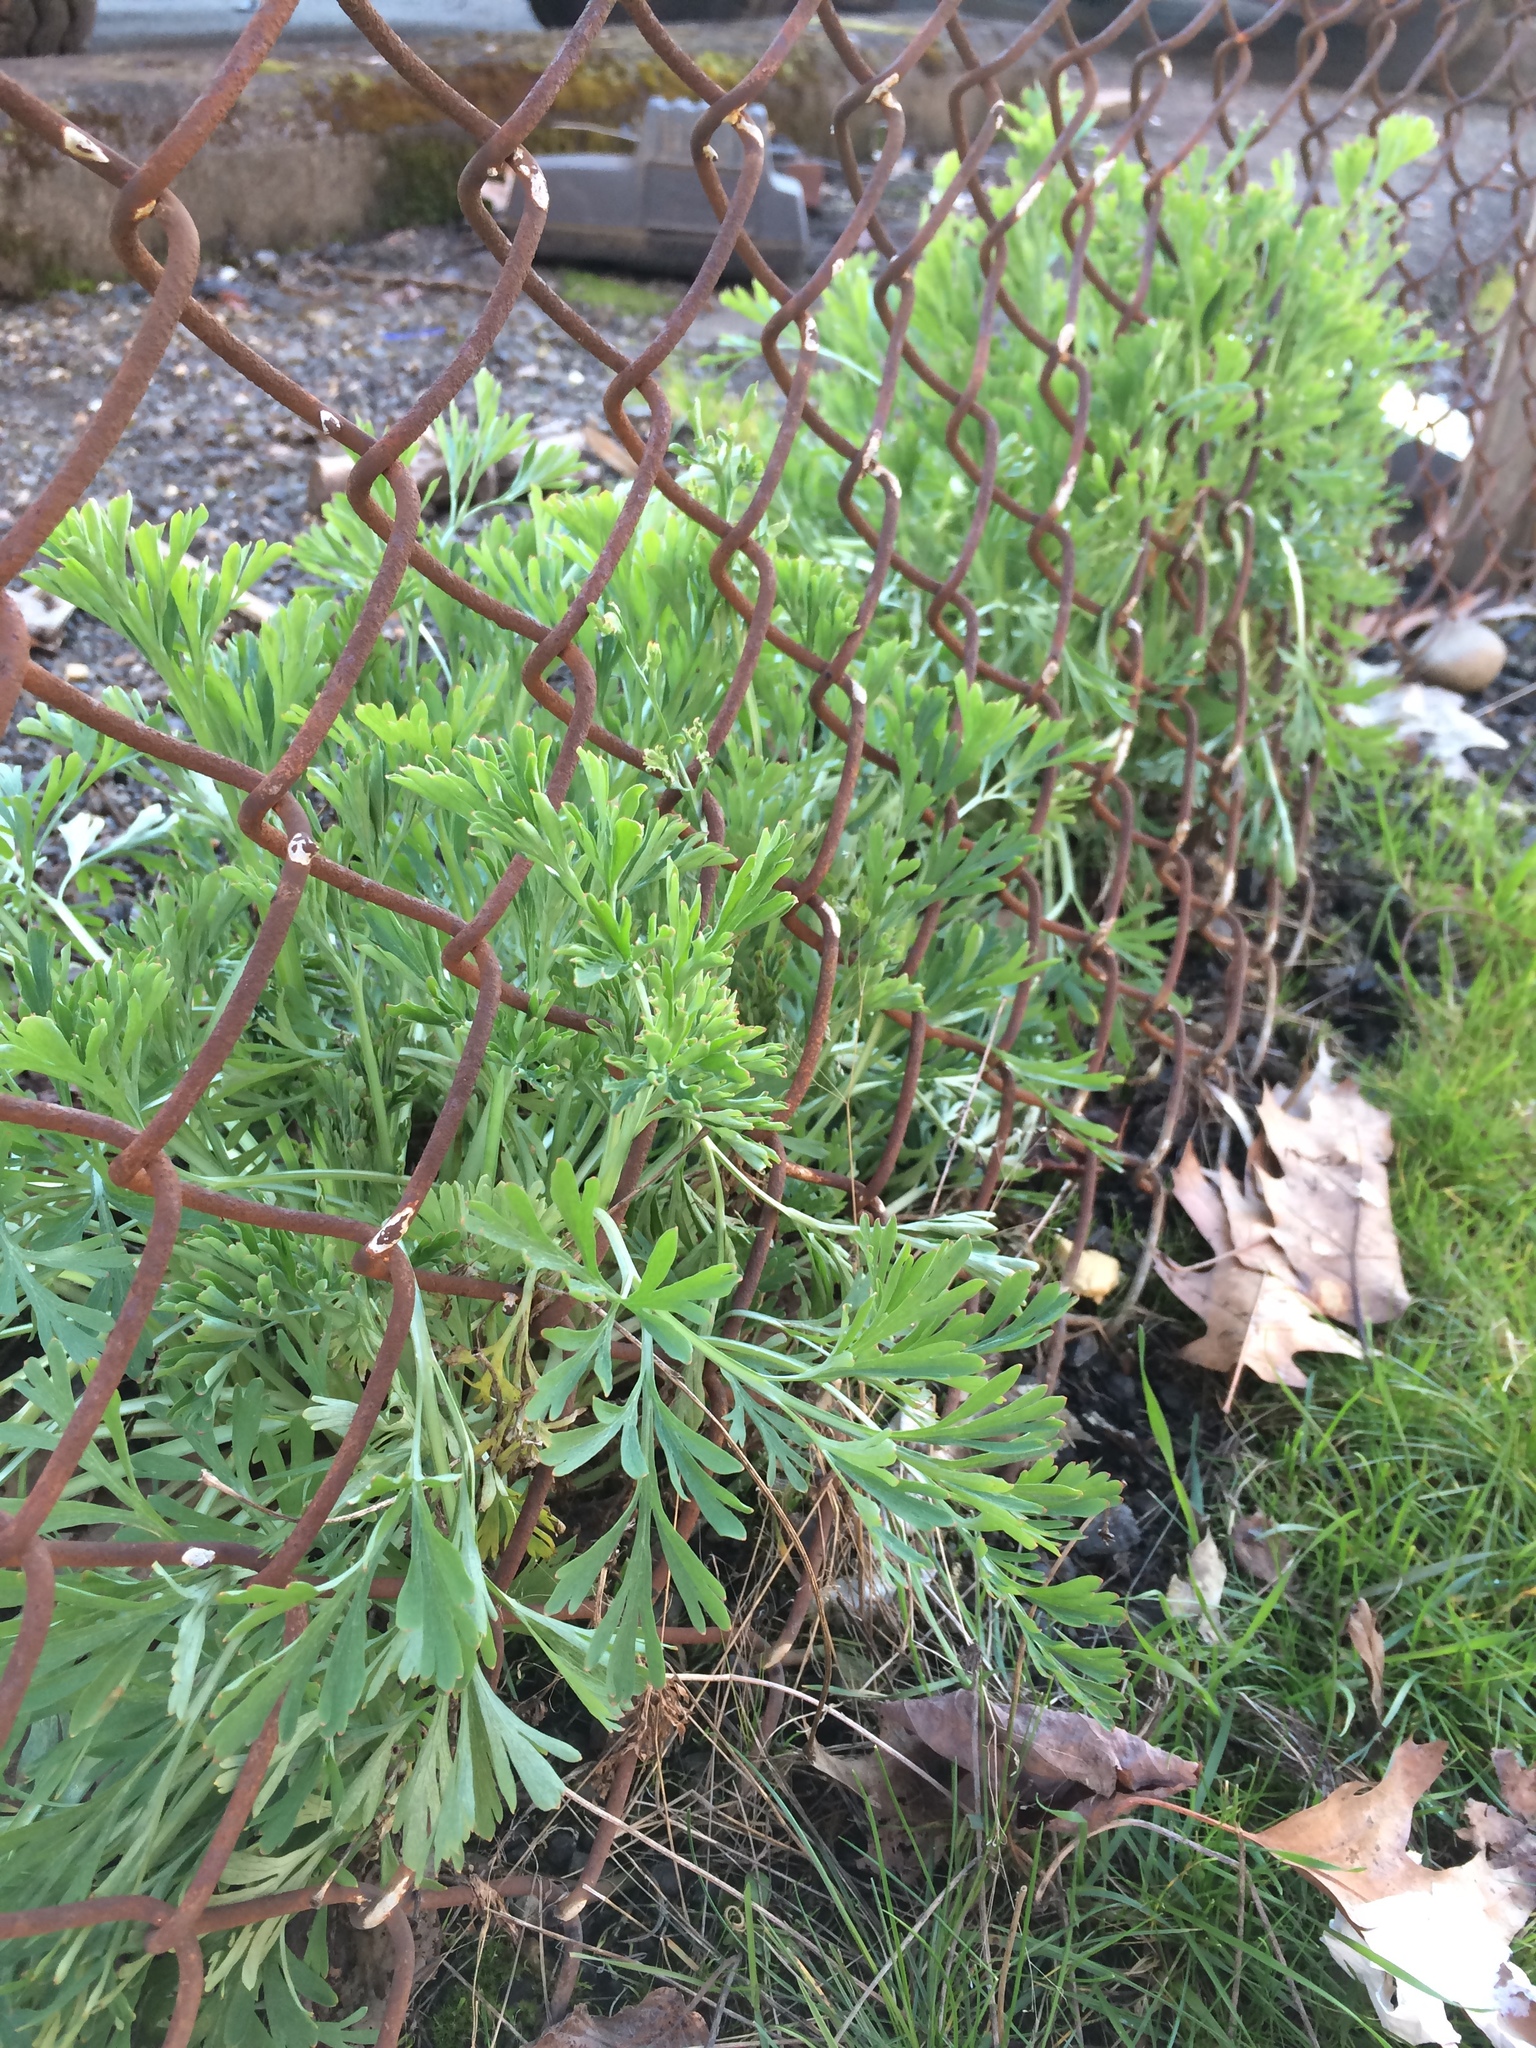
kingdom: Plantae
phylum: Tracheophyta
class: Magnoliopsida
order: Ranunculales
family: Papaveraceae
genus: Eschscholzia
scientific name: Eschscholzia californica
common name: California poppy
